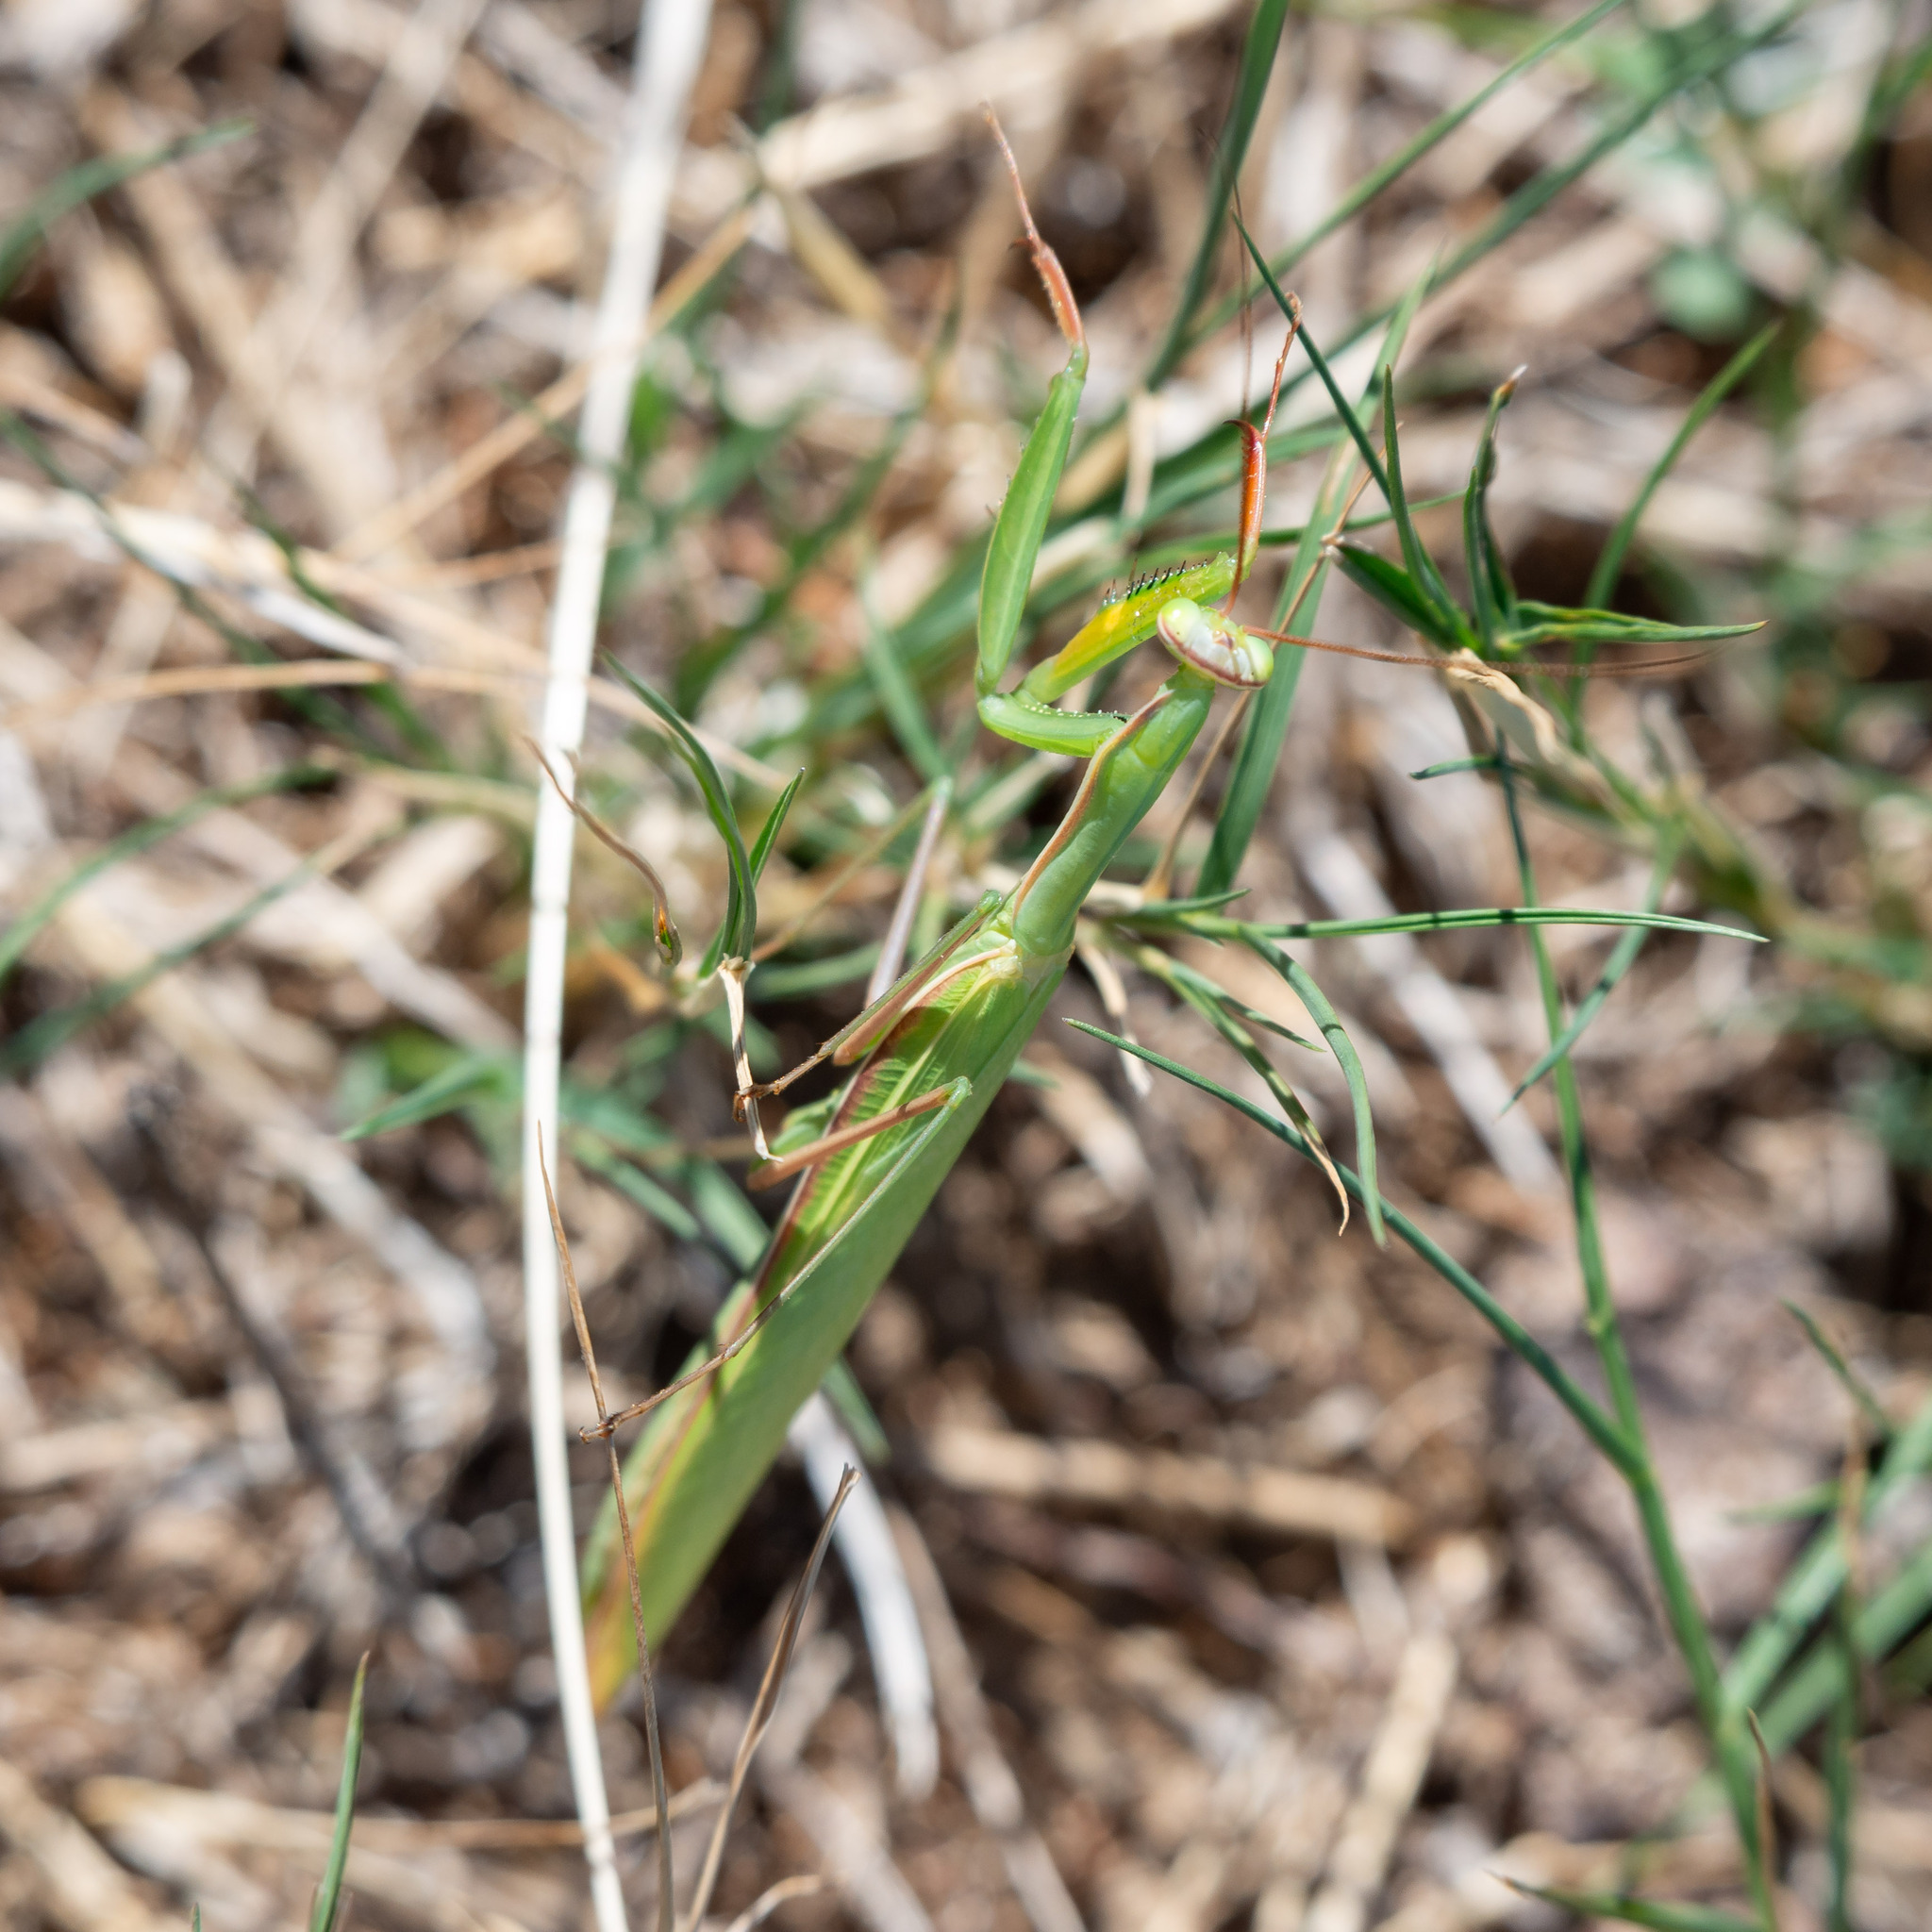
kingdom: Animalia
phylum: Arthropoda
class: Insecta
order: Mantodea
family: Mantidae
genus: Mantis
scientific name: Mantis religiosa
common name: Praying mantis
